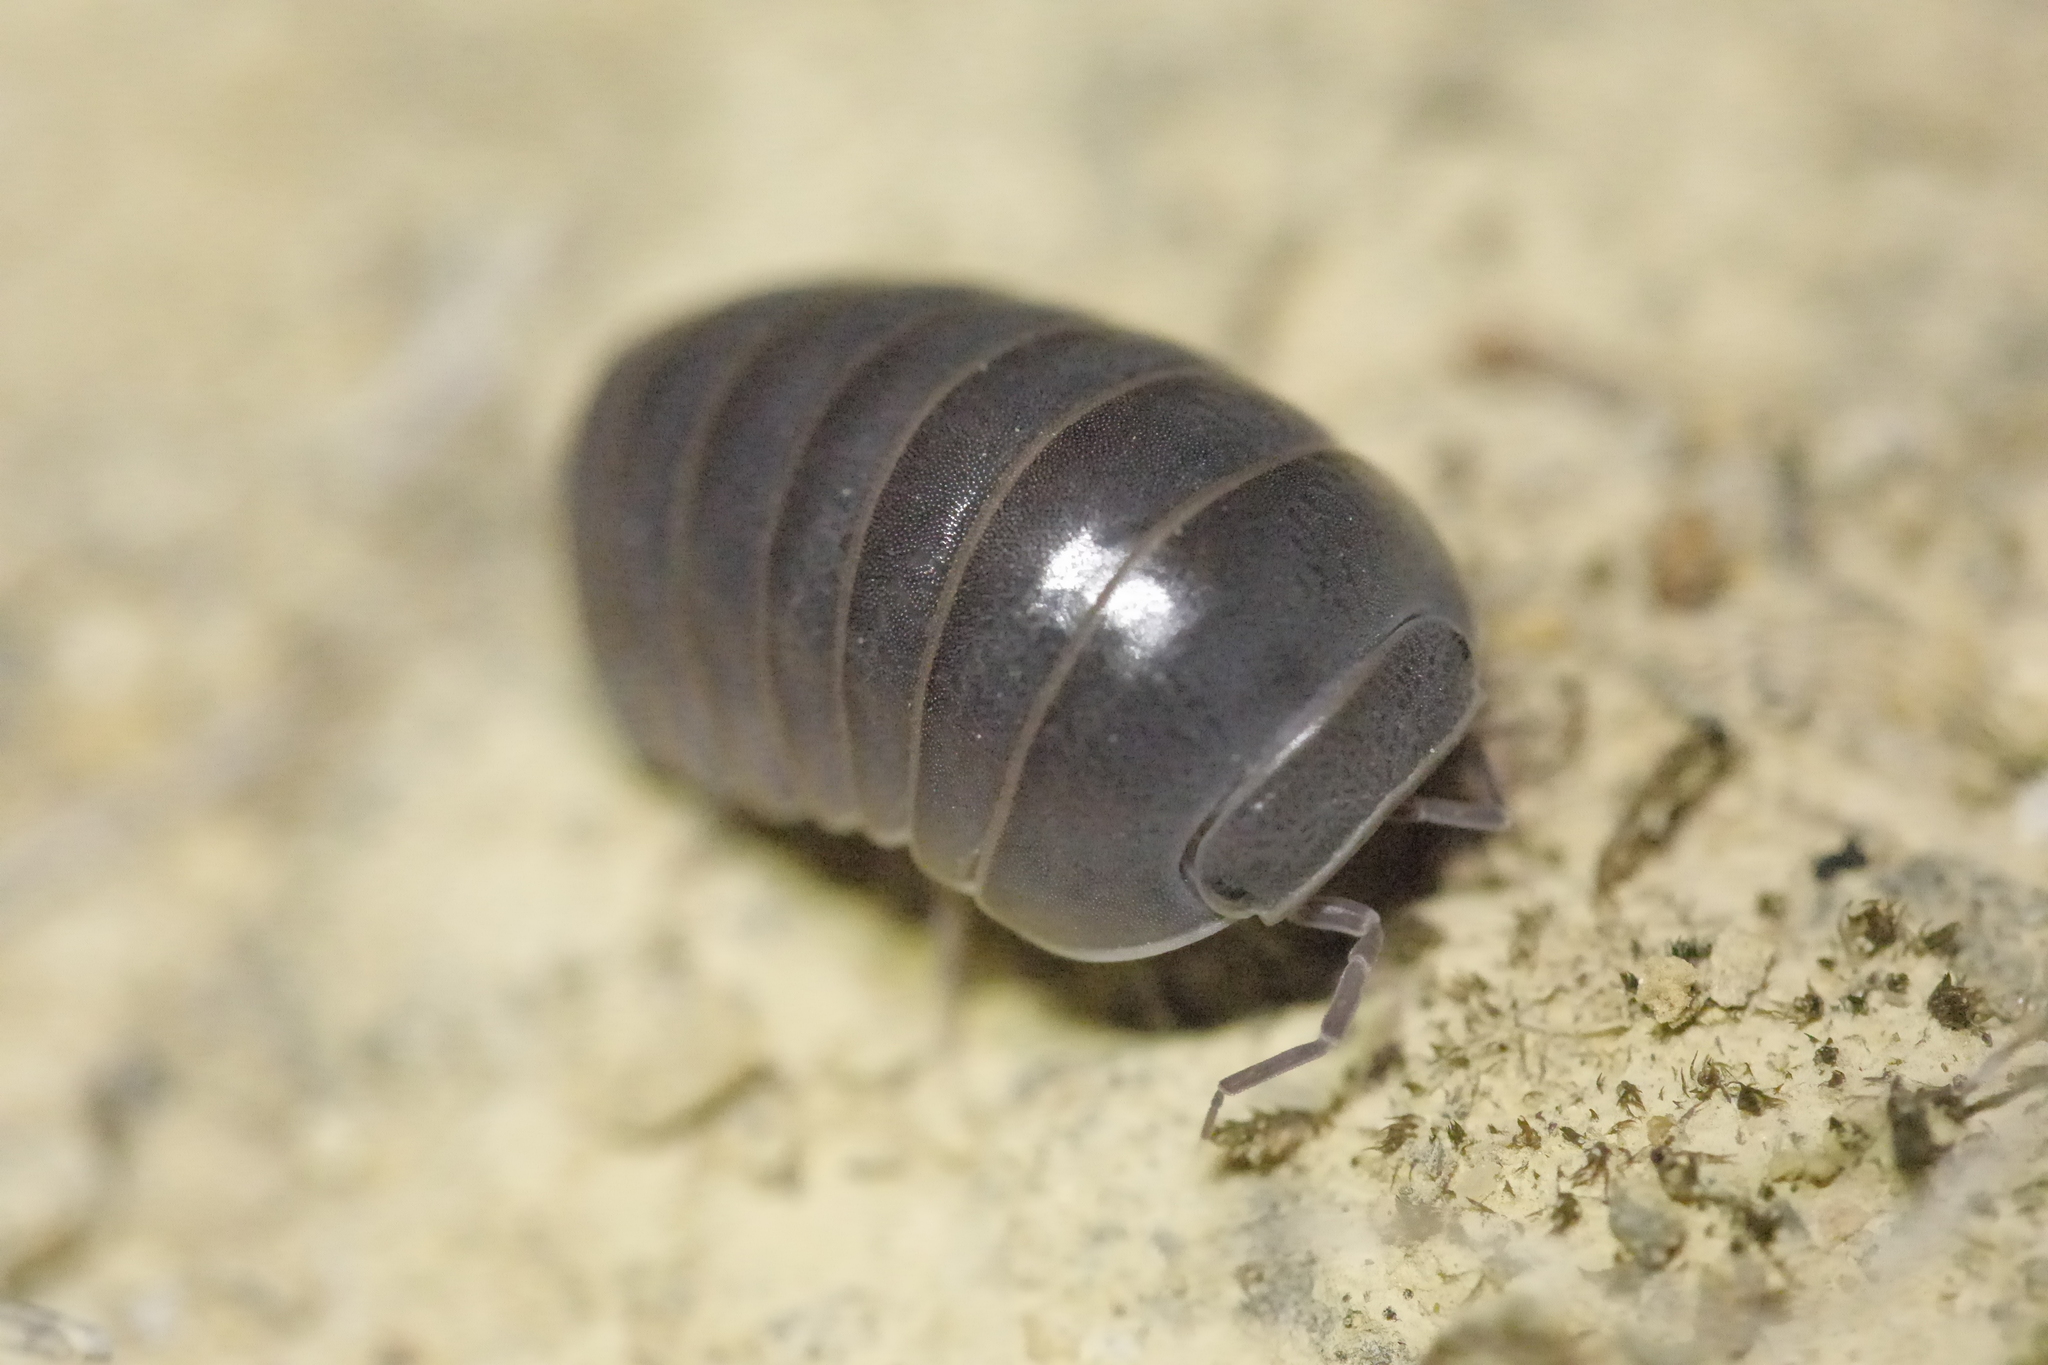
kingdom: Animalia
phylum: Arthropoda
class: Malacostraca
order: Isopoda
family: Armadillidae
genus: Armadillo
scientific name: Armadillo officinalis
